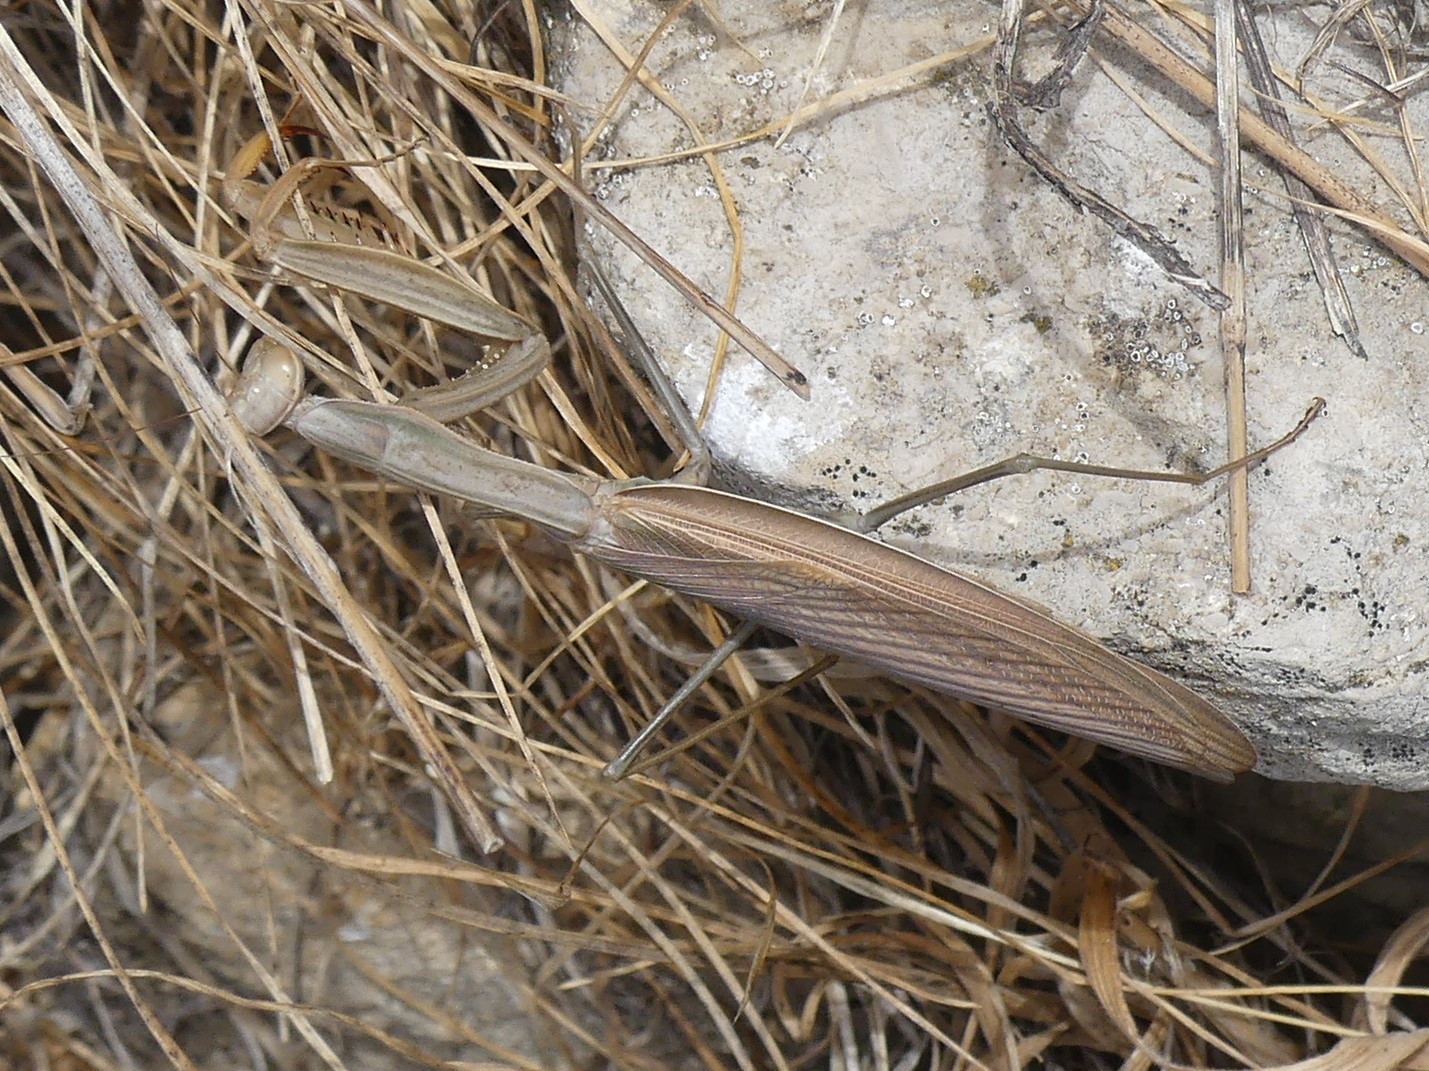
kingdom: Animalia
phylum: Arthropoda
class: Insecta
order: Mantodea
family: Mantidae
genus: Mantis
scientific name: Mantis religiosa
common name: Praying mantis
